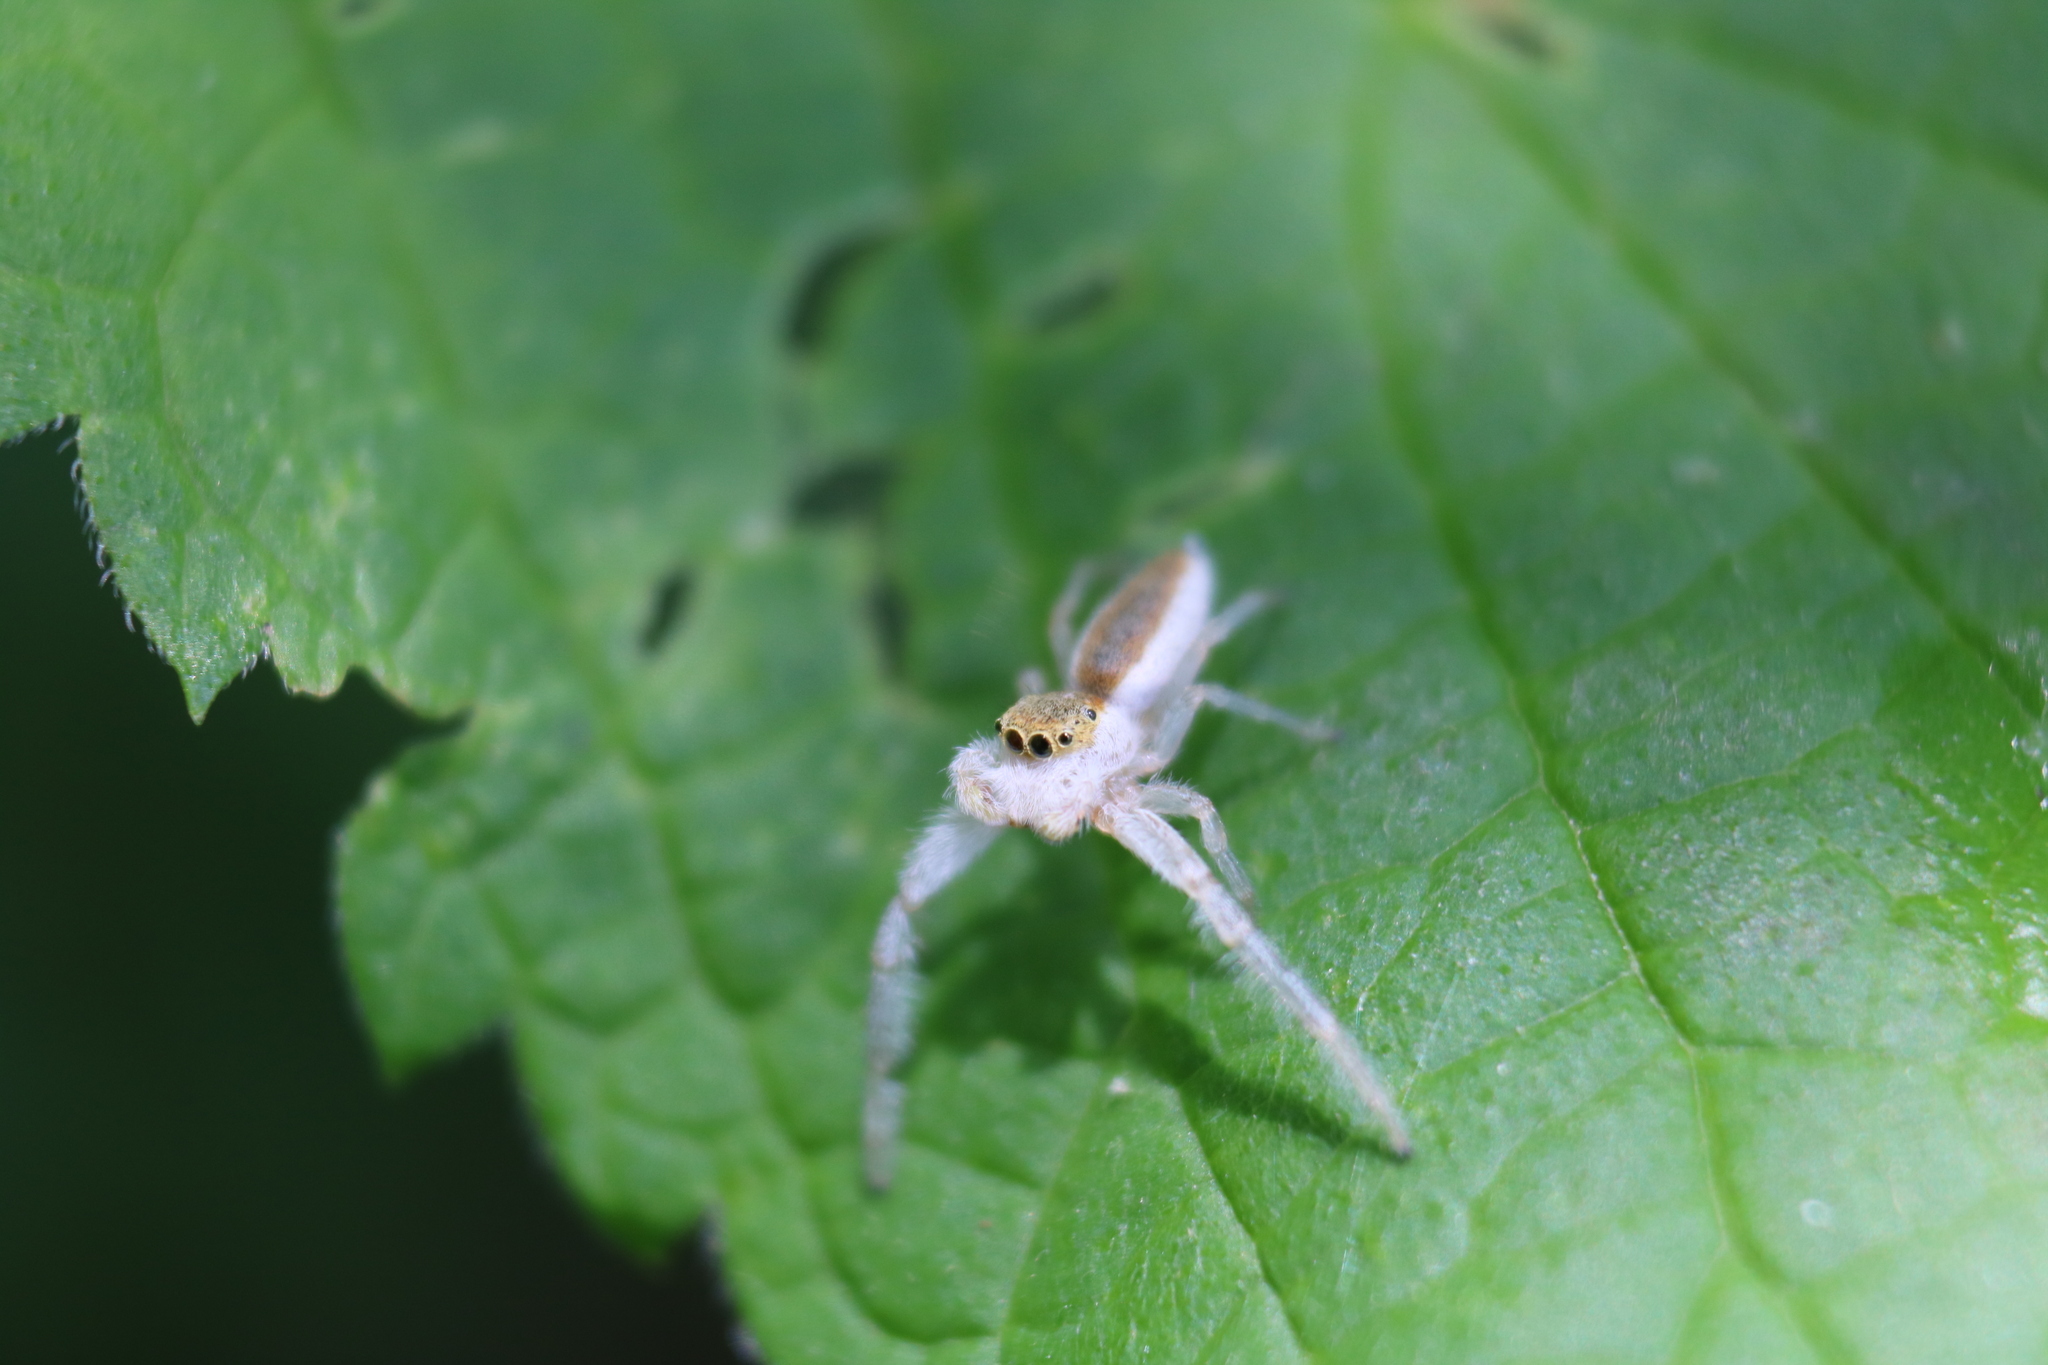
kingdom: Animalia
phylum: Arthropoda
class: Arachnida
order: Araneae
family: Salticidae
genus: Hentzia
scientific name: Hentzia mitrata
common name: White-jawed jumping spider
